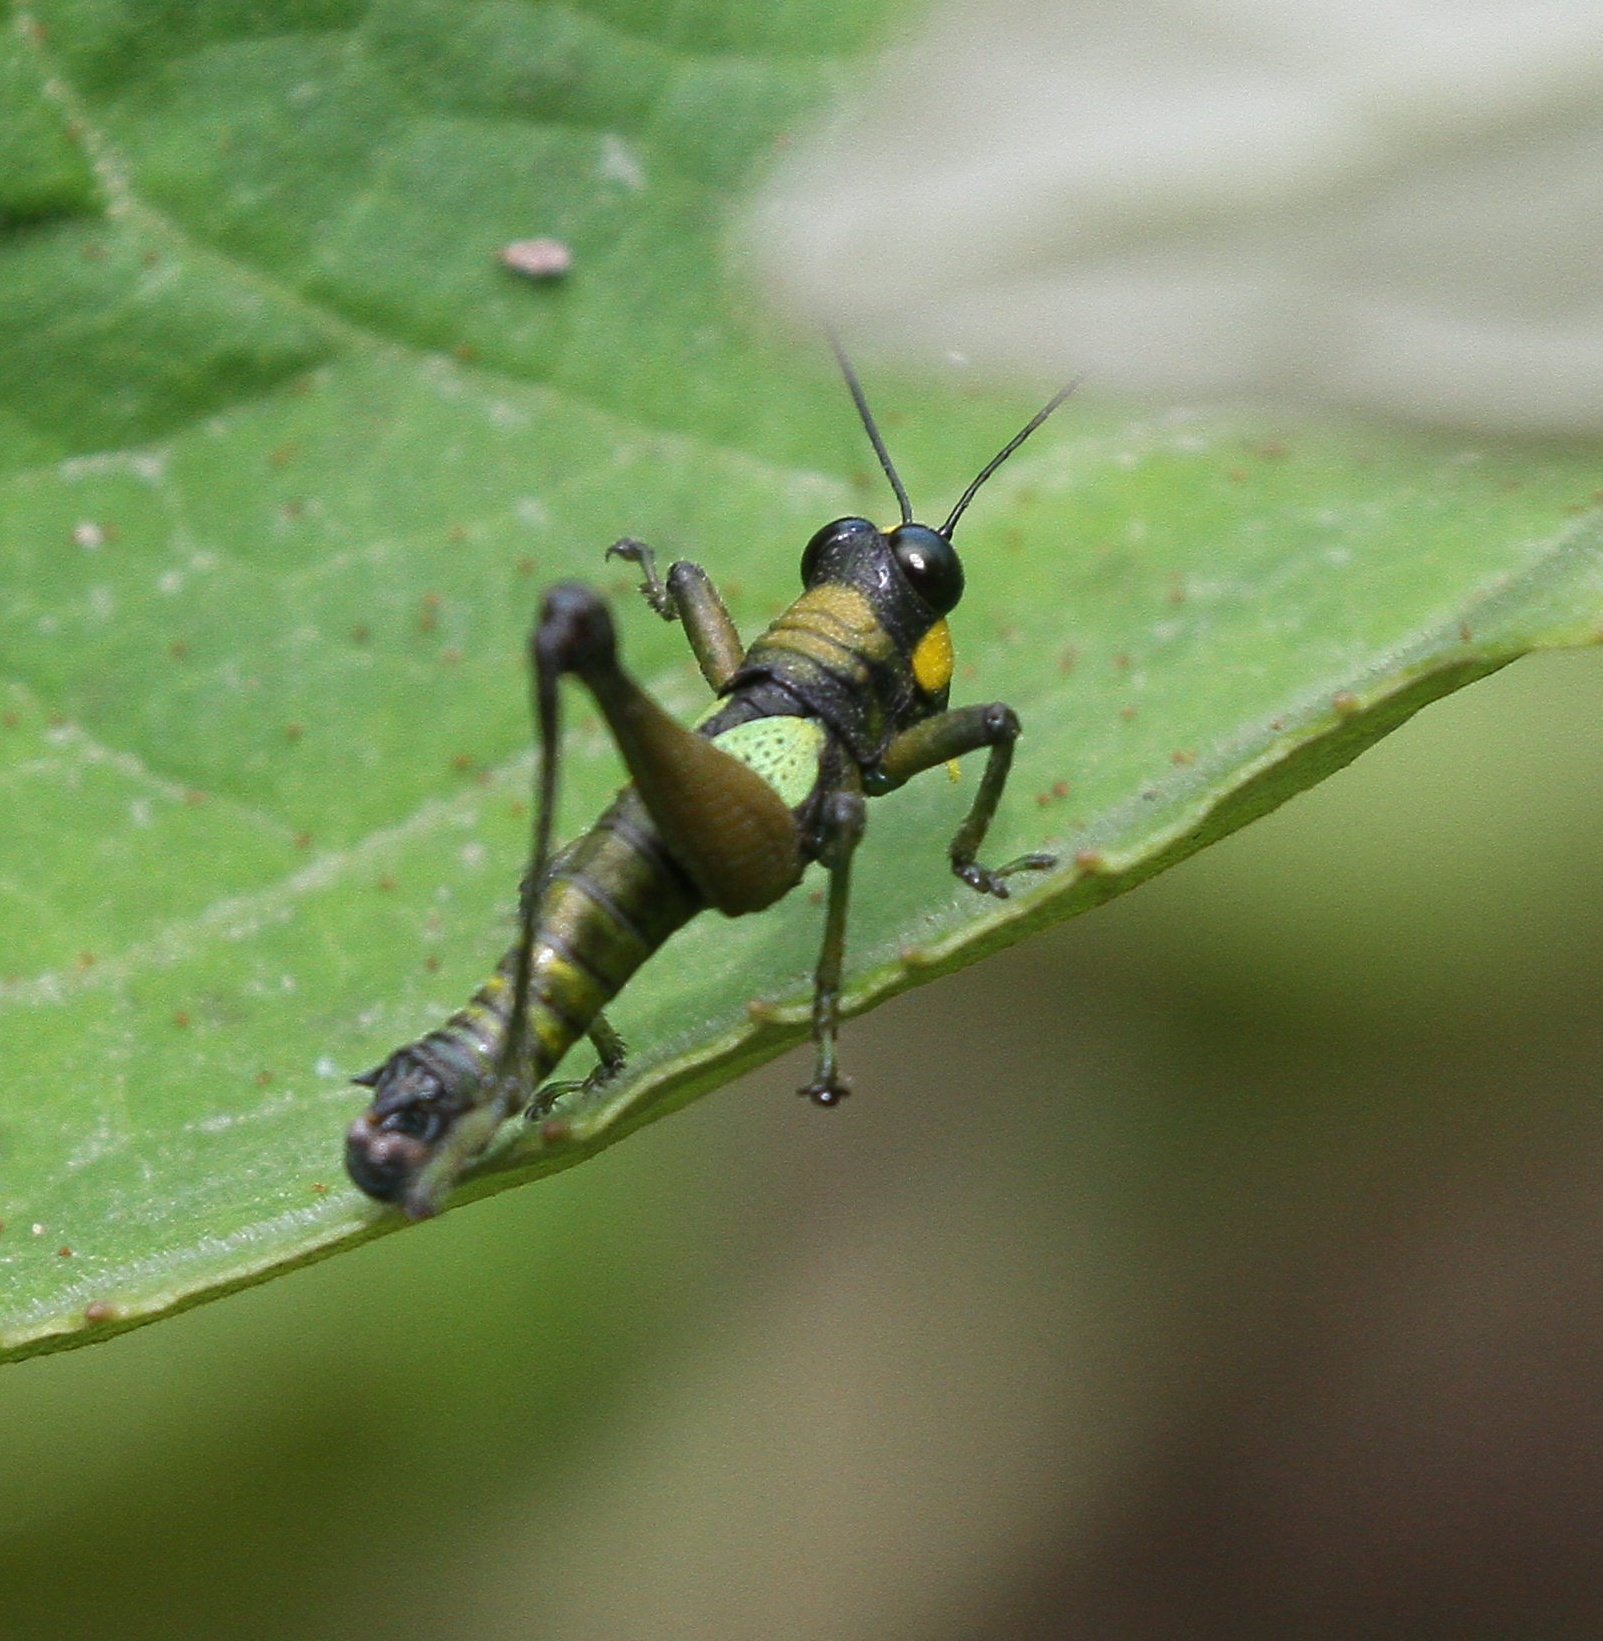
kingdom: Animalia
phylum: Arthropoda
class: Insecta
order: Orthoptera
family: Acrididae
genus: Eulampiacris
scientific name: Eulampiacris leucoptera
